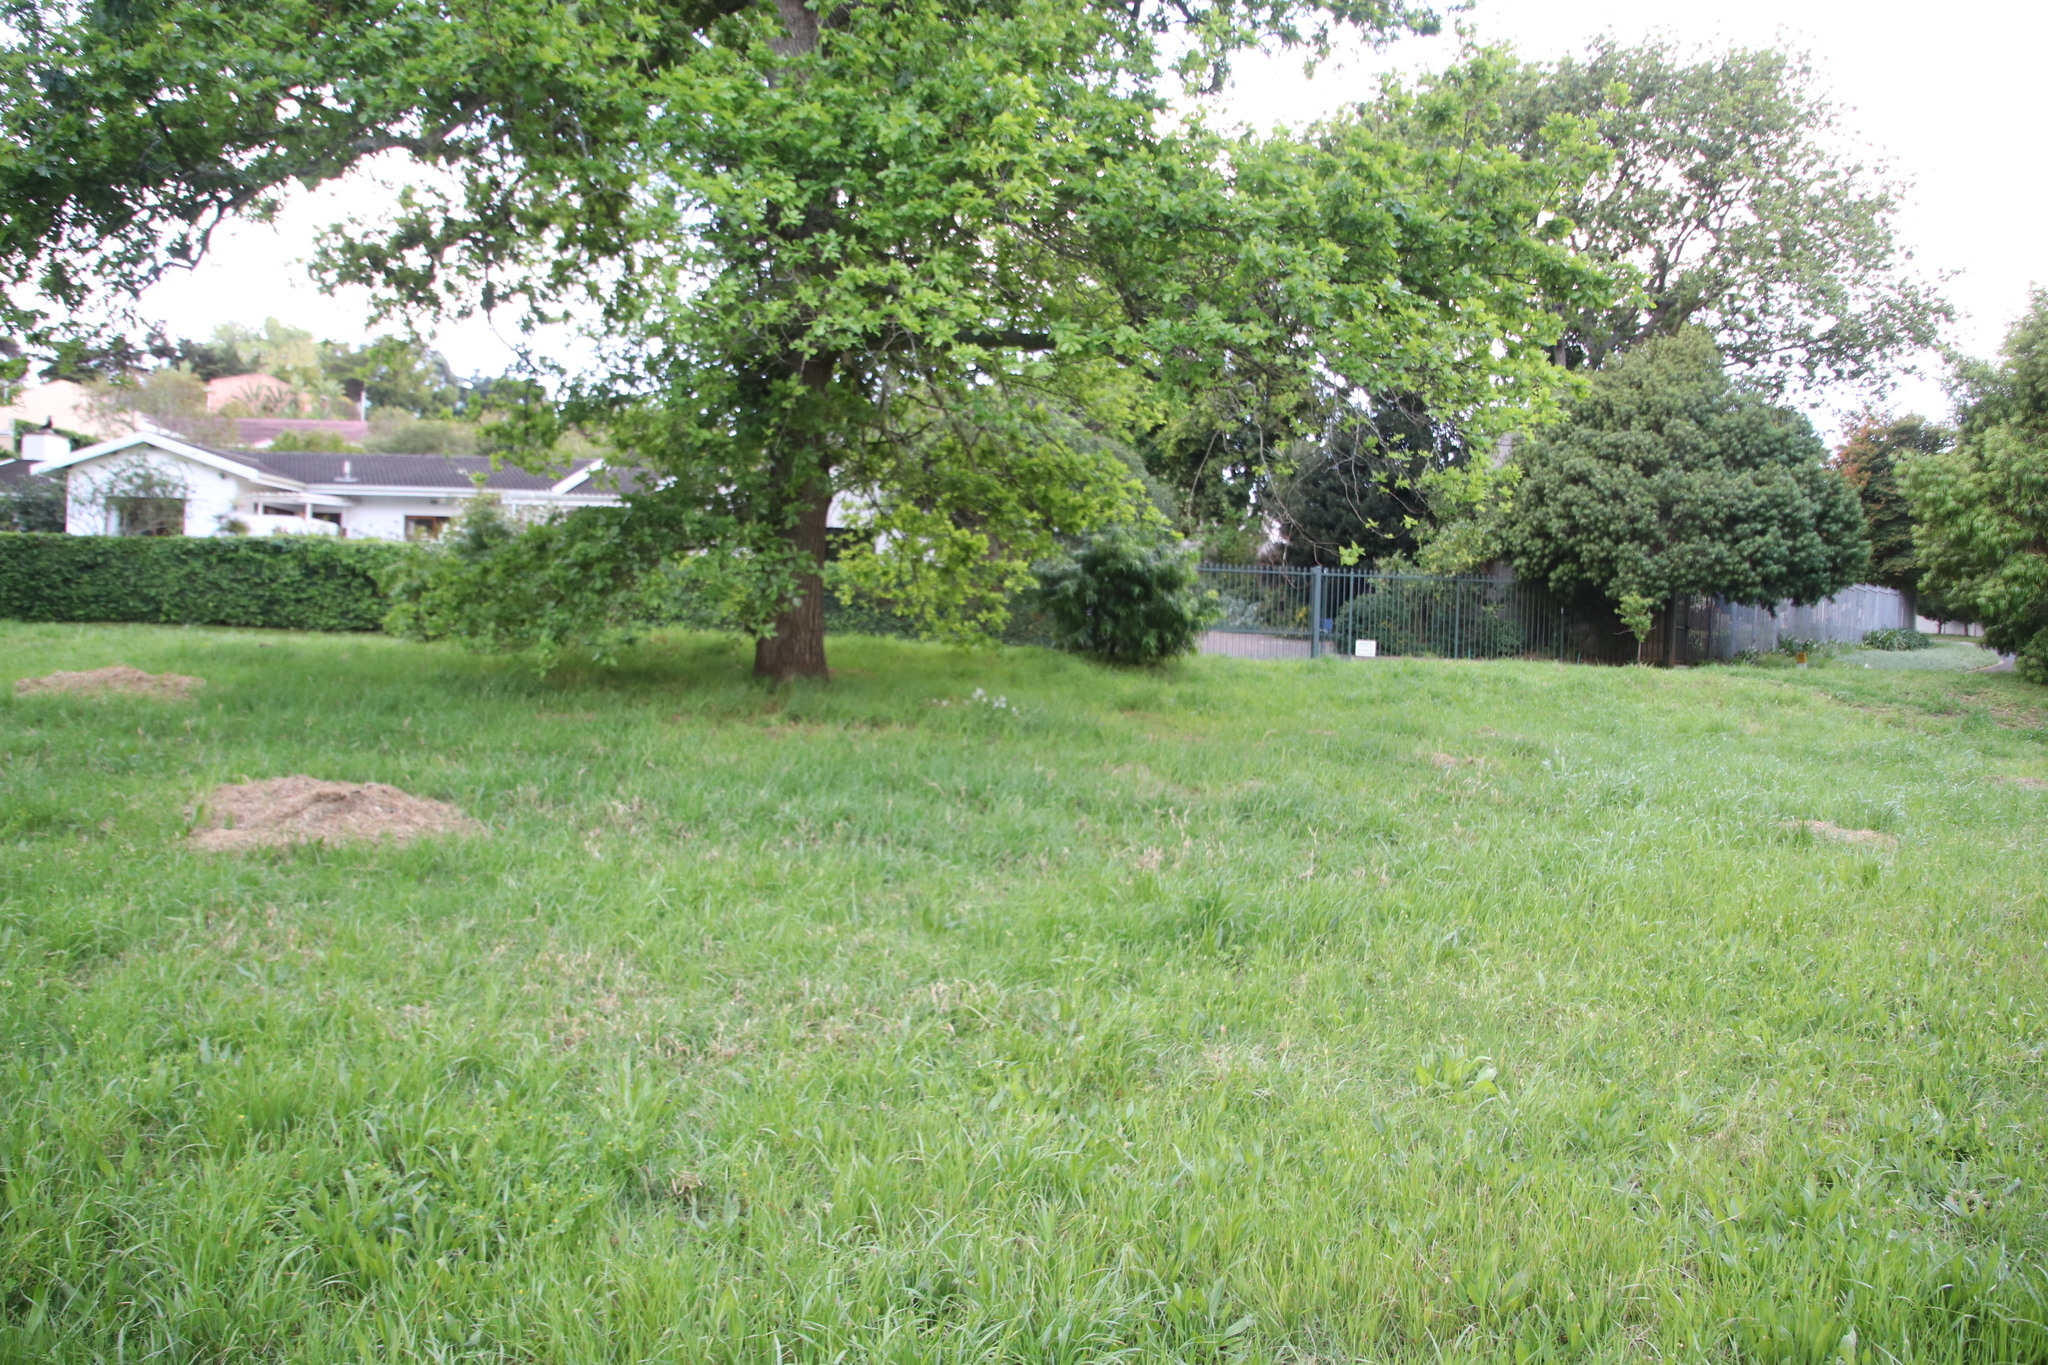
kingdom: Plantae
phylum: Tracheophyta
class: Liliopsida
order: Asparagales
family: Amaryllidaceae
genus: Allium
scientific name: Allium triquetrum
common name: Three-cornered garlic
